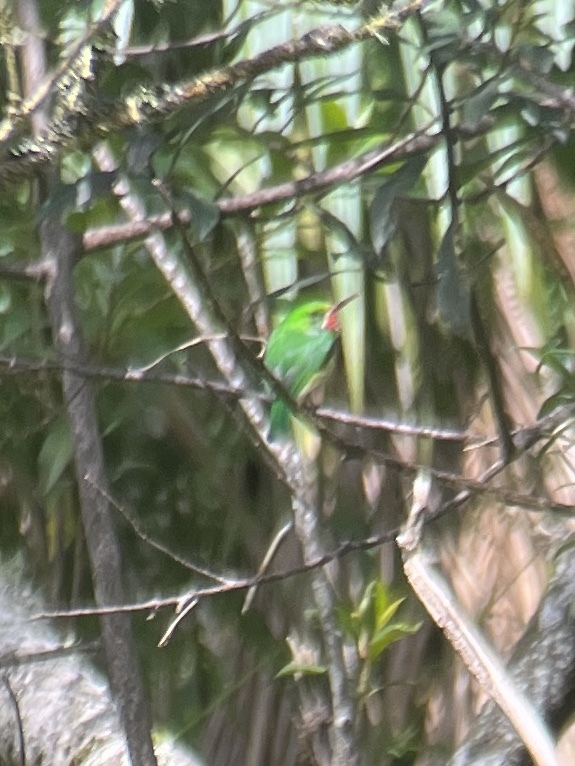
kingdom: Animalia
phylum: Chordata
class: Aves
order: Coraciiformes
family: Todidae
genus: Todus
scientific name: Todus mexicanus
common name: Puerto rican tody
